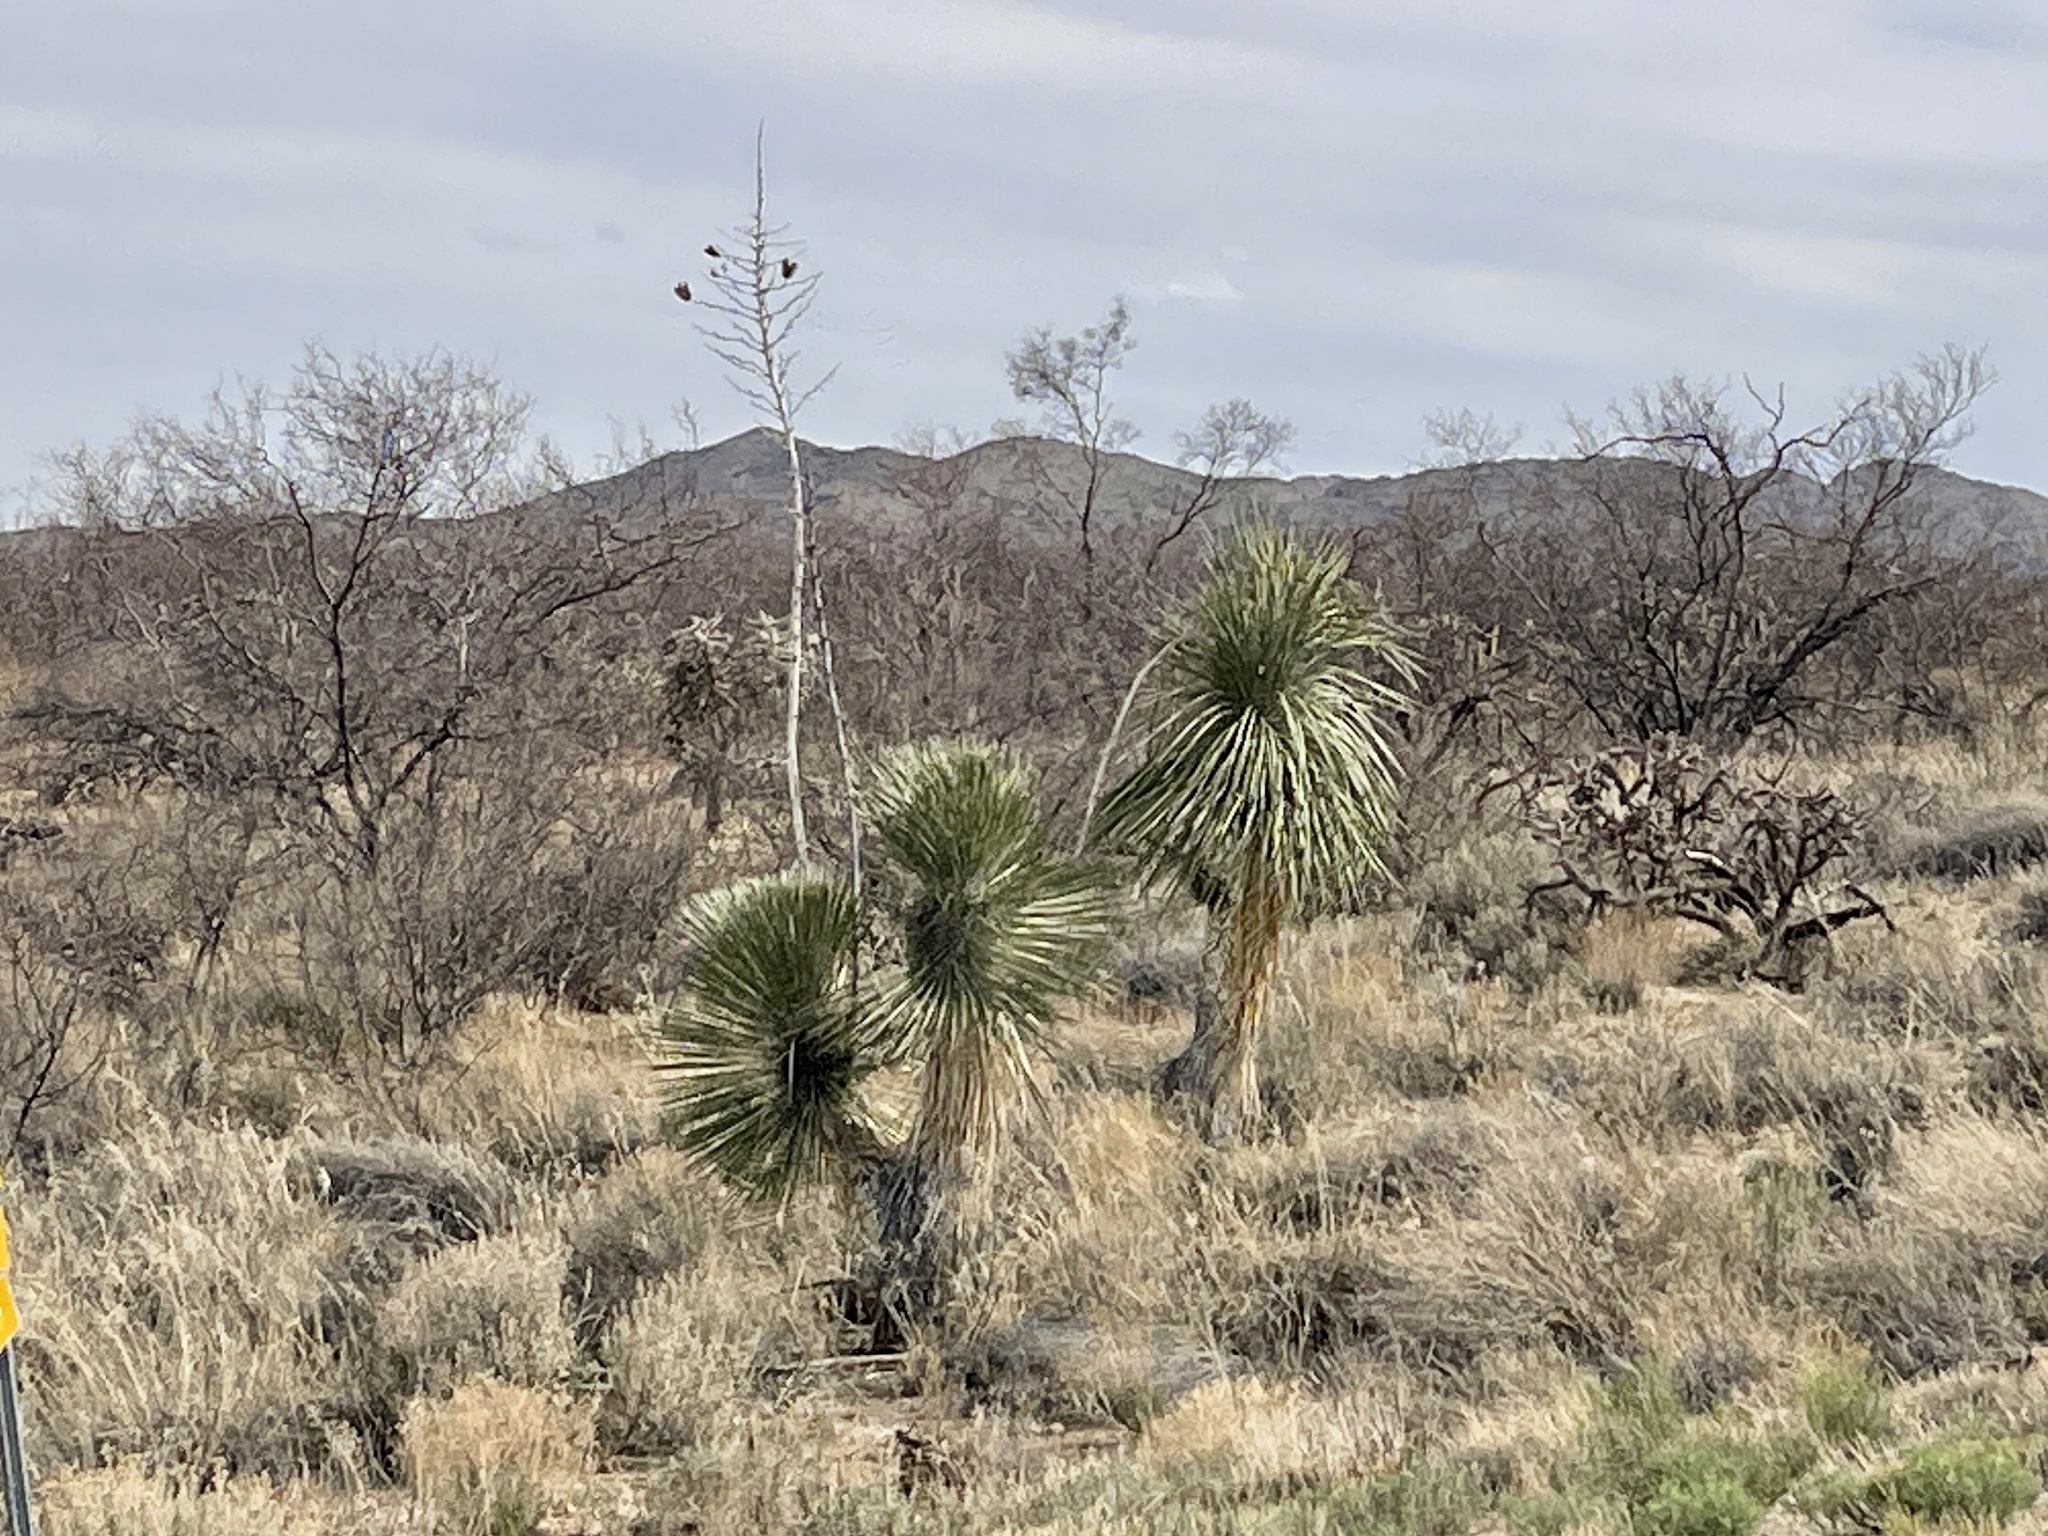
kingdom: Plantae
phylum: Tracheophyta
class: Liliopsida
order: Asparagales
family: Asparagaceae
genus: Yucca
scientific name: Yucca elata
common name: Palmella
